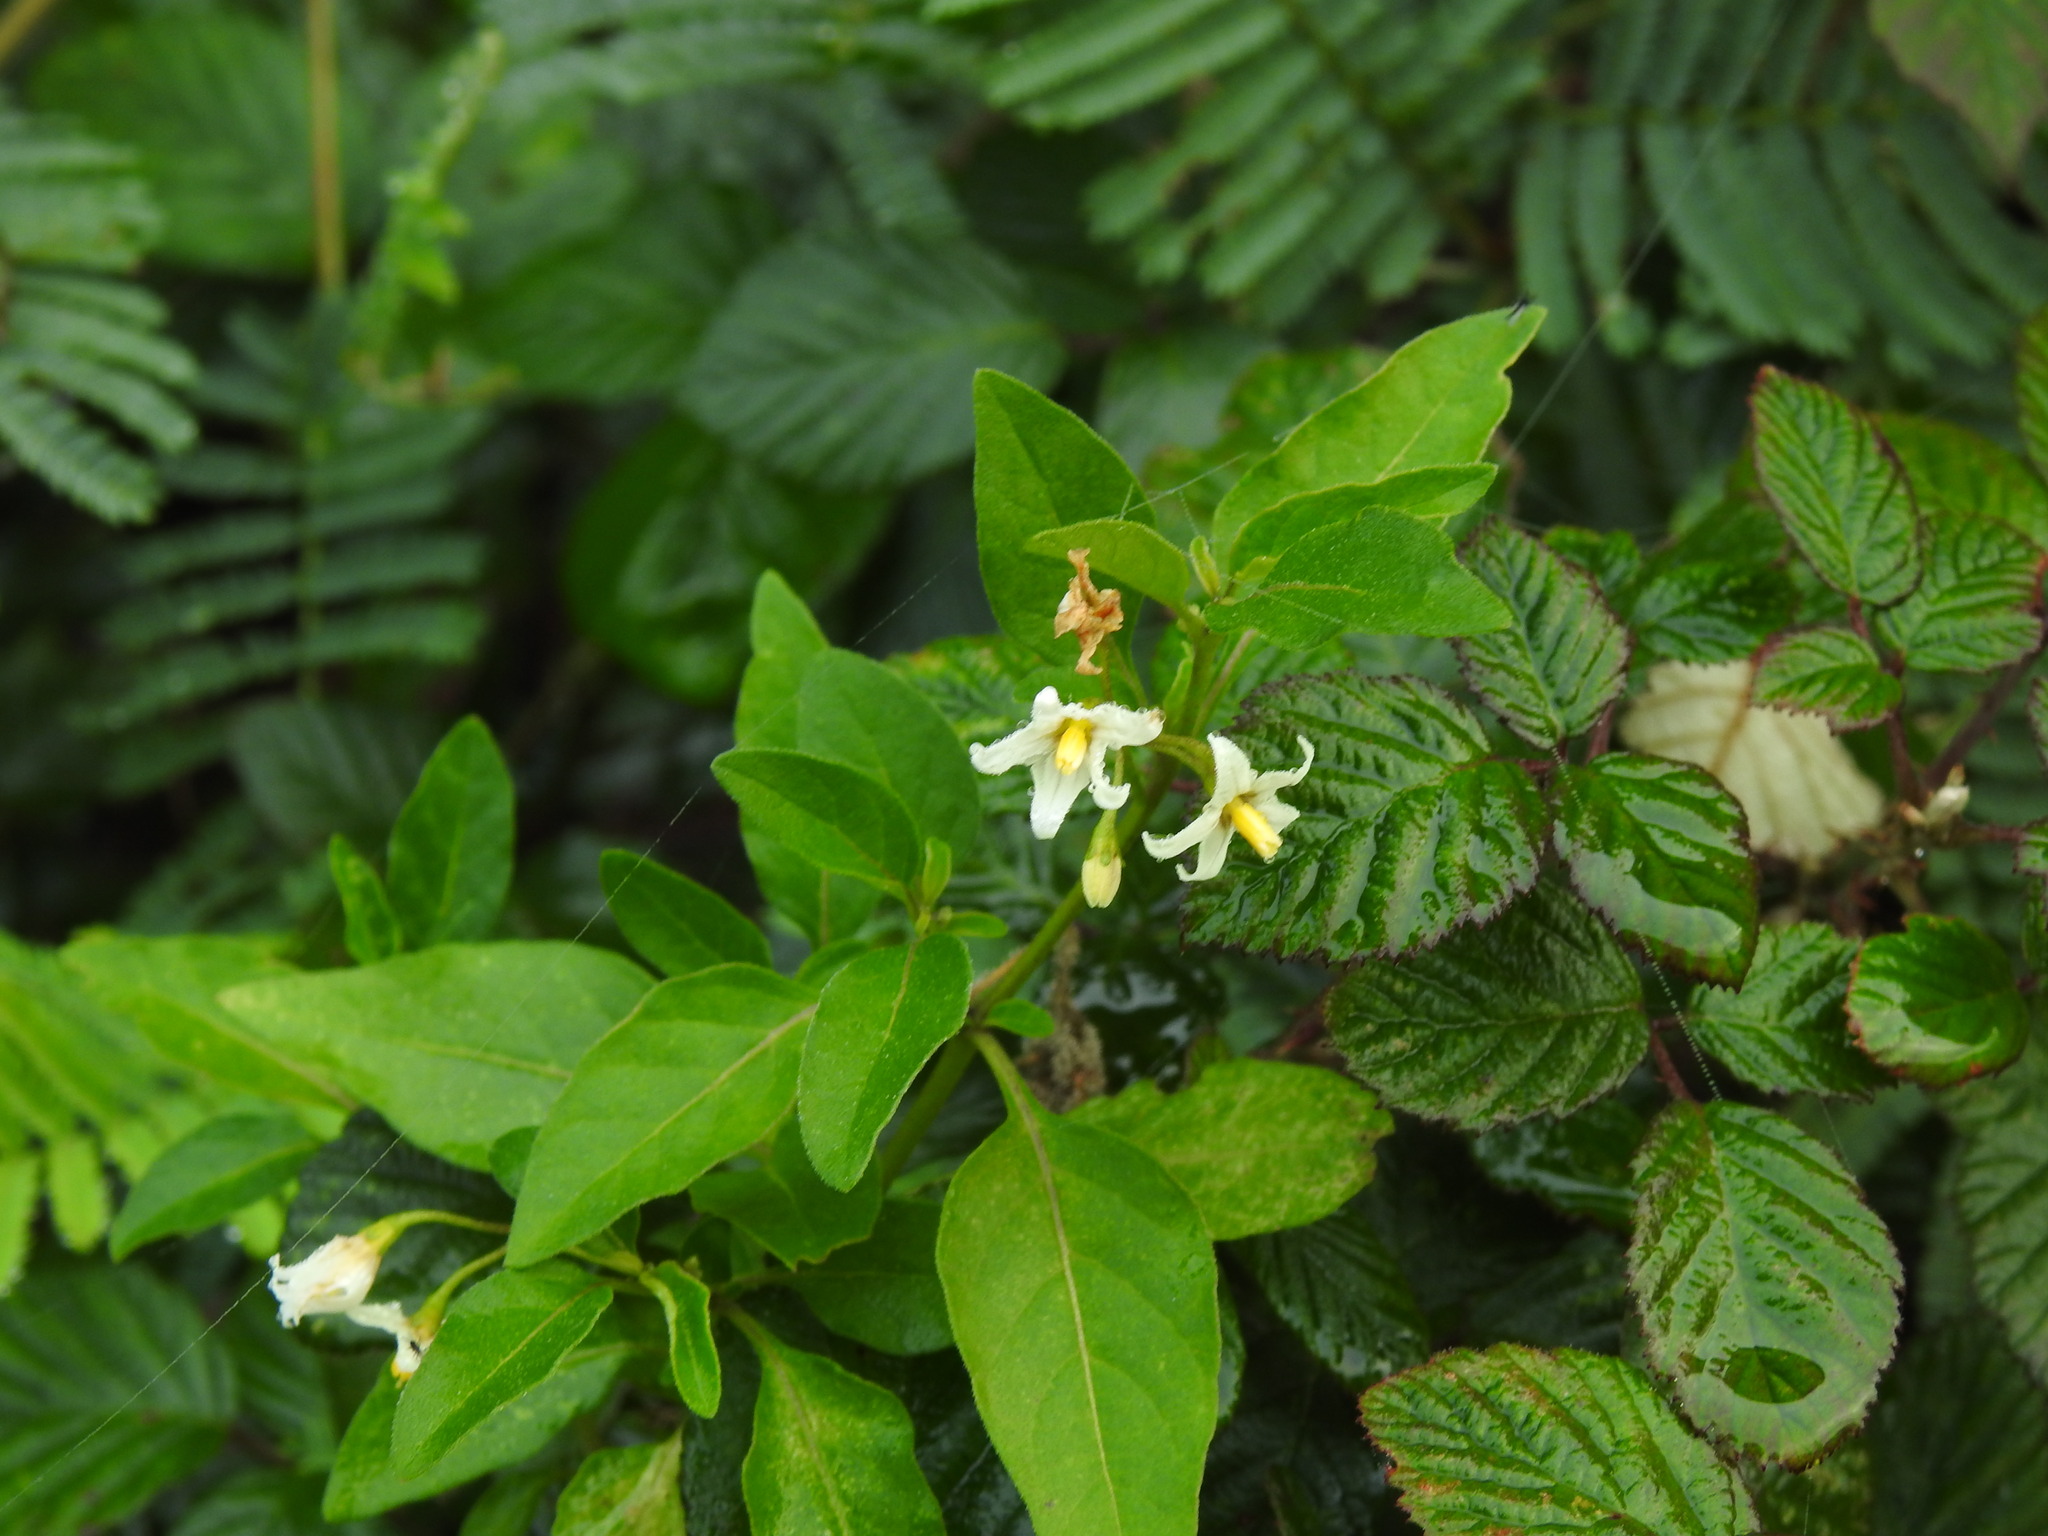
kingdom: Plantae
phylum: Tracheophyta
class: Magnoliopsida
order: Solanales
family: Solanaceae
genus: Solanum
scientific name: Solanum chenopodioides
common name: Tall nightshade
